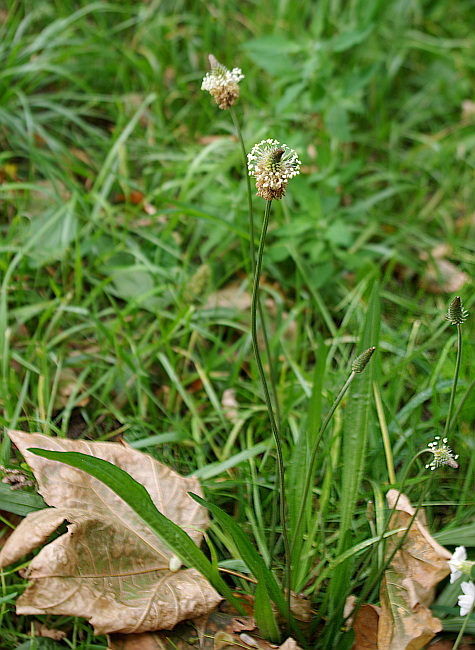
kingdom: Plantae
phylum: Tracheophyta
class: Magnoliopsida
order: Lamiales
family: Plantaginaceae
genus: Plantago
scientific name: Plantago lanceolata
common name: Ribwort plantain
